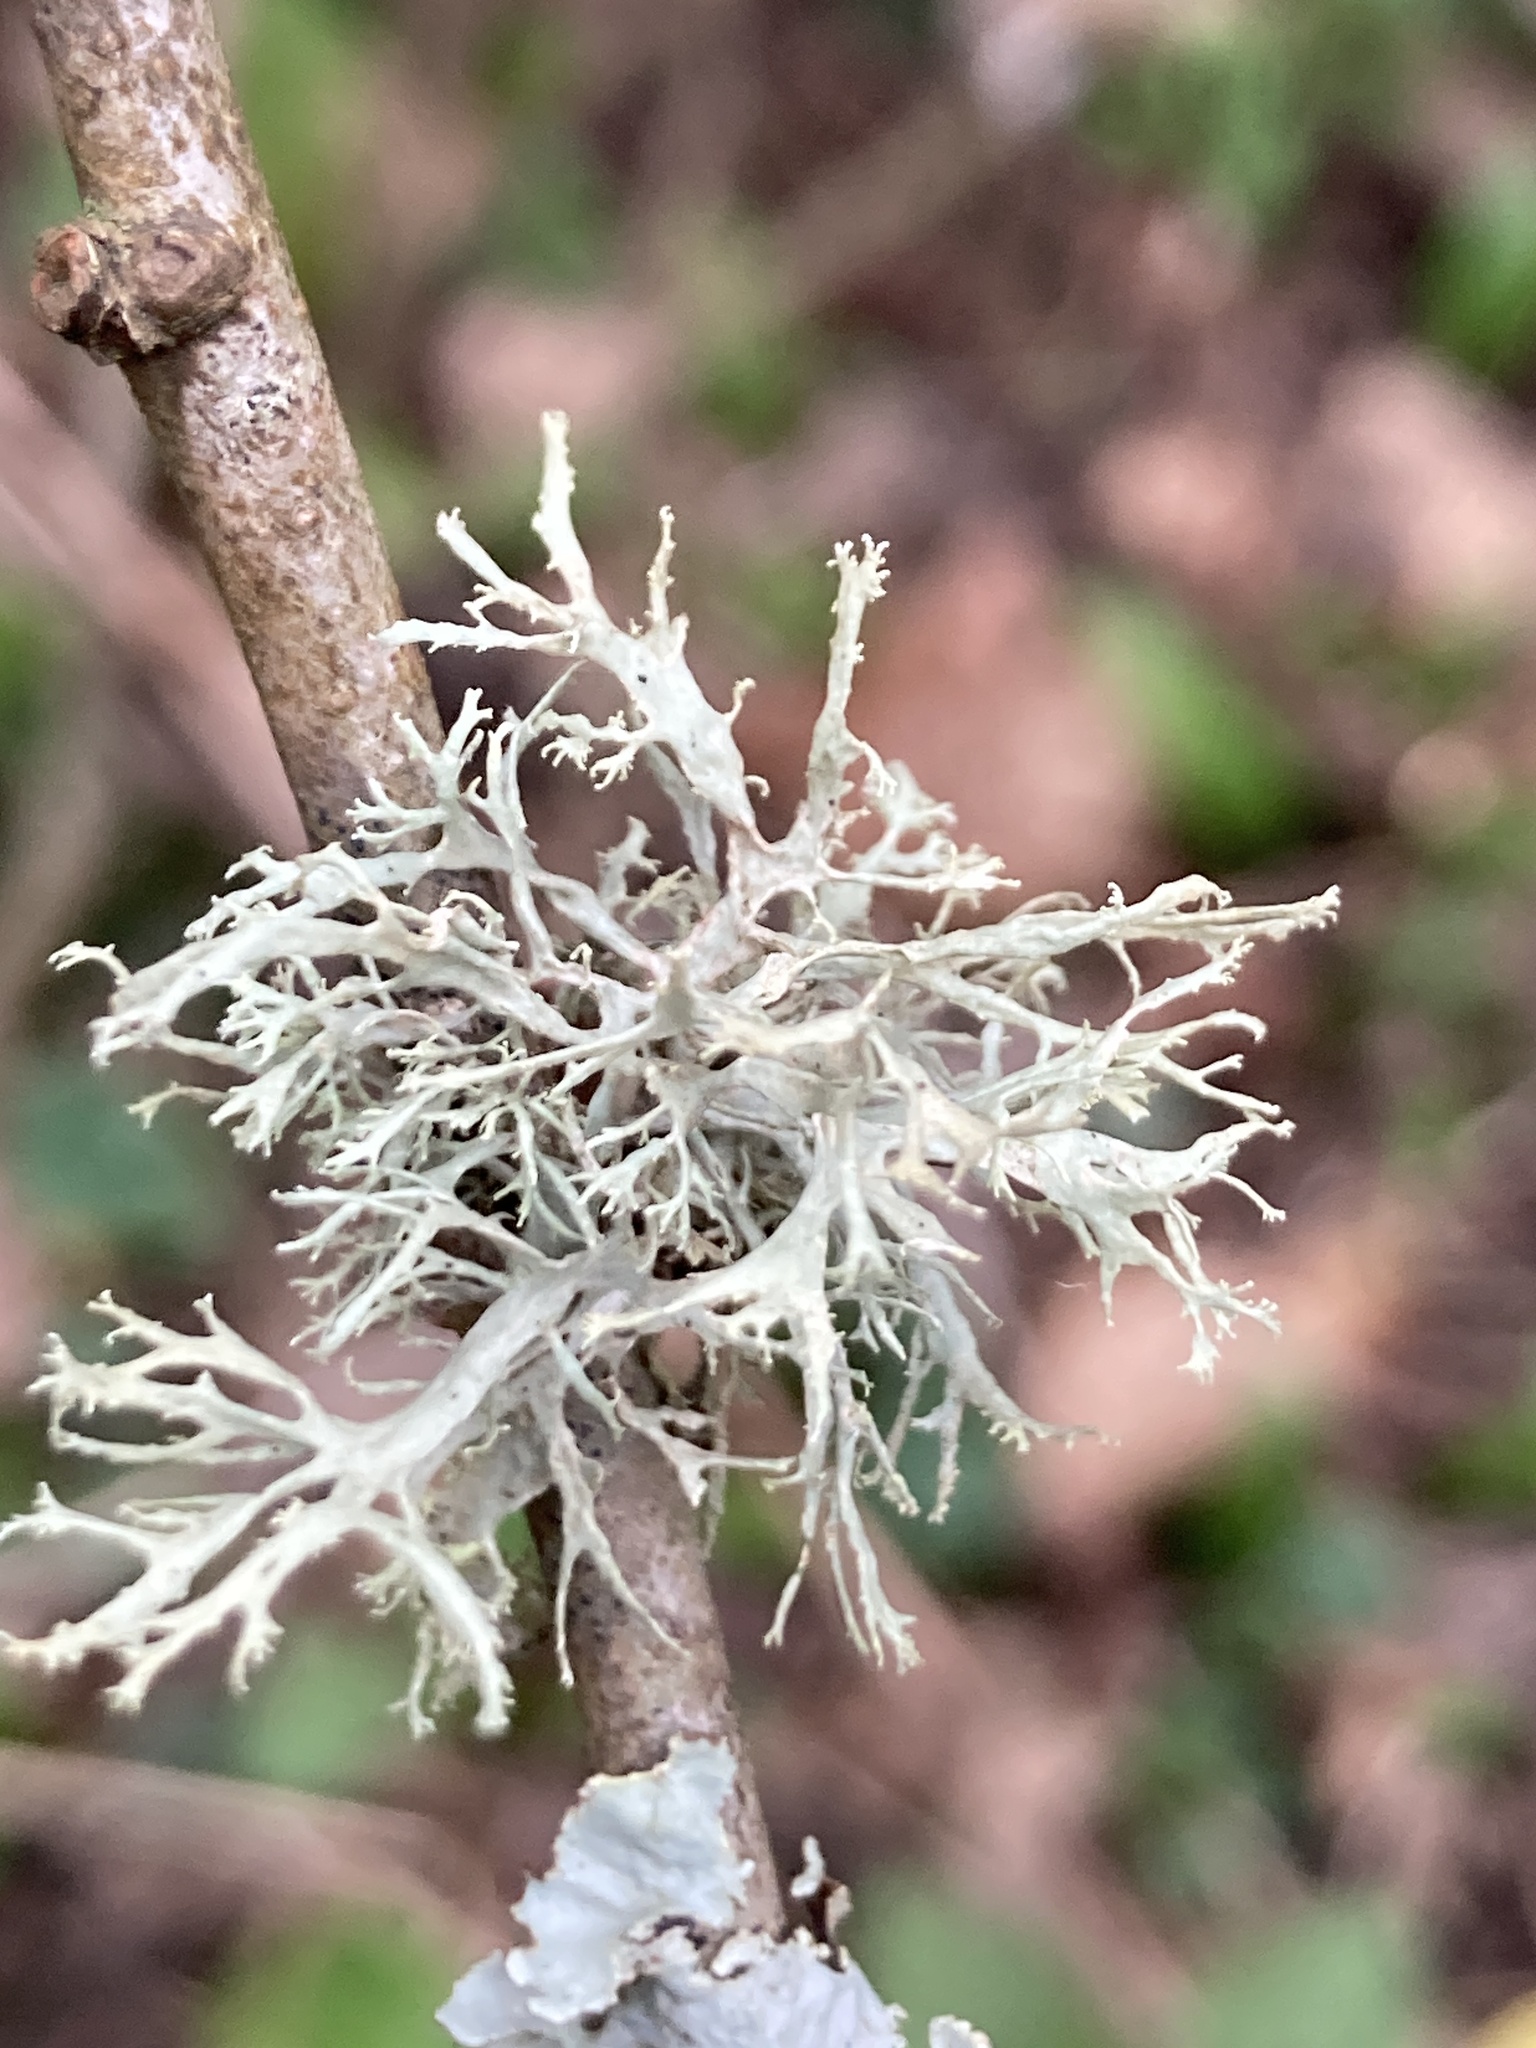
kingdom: Fungi
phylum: Ascomycota
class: Lecanoromycetes
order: Lecanorales
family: Ramalinaceae
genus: Ramalina
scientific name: Ramalina farinacea
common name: Farinose cartilage lichen
